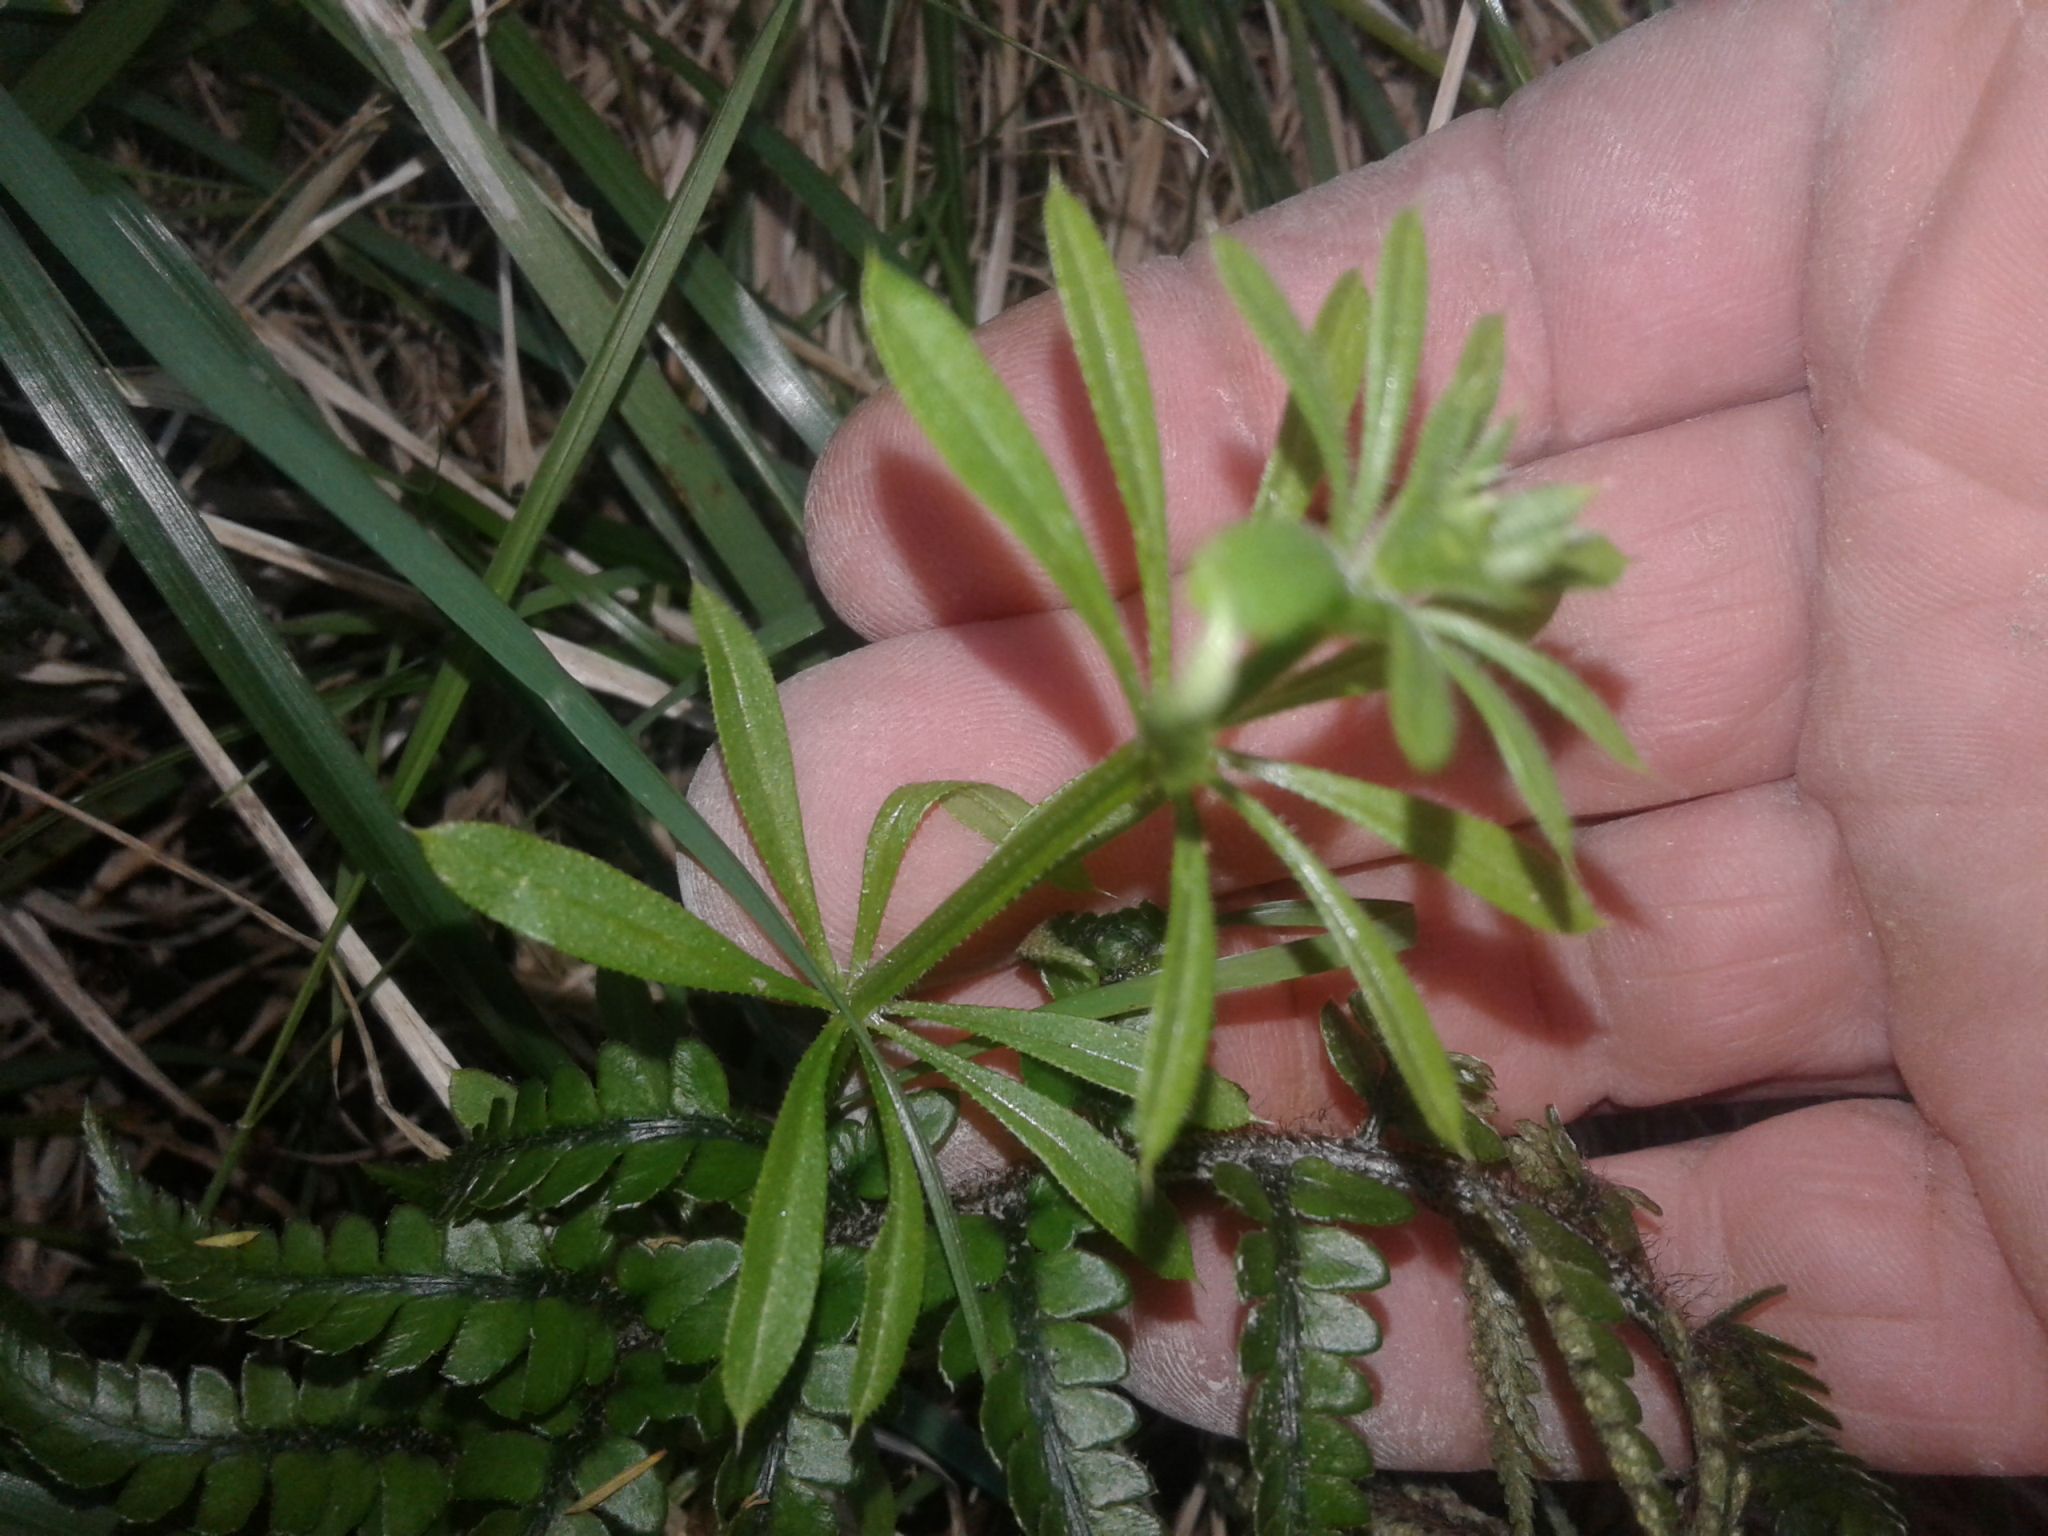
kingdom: Plantae
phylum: Tracheophyta
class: Magnoliopsida
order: Gentianales
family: Rubiaceae
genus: Galium
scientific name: Galium aparine
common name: Cleavers
